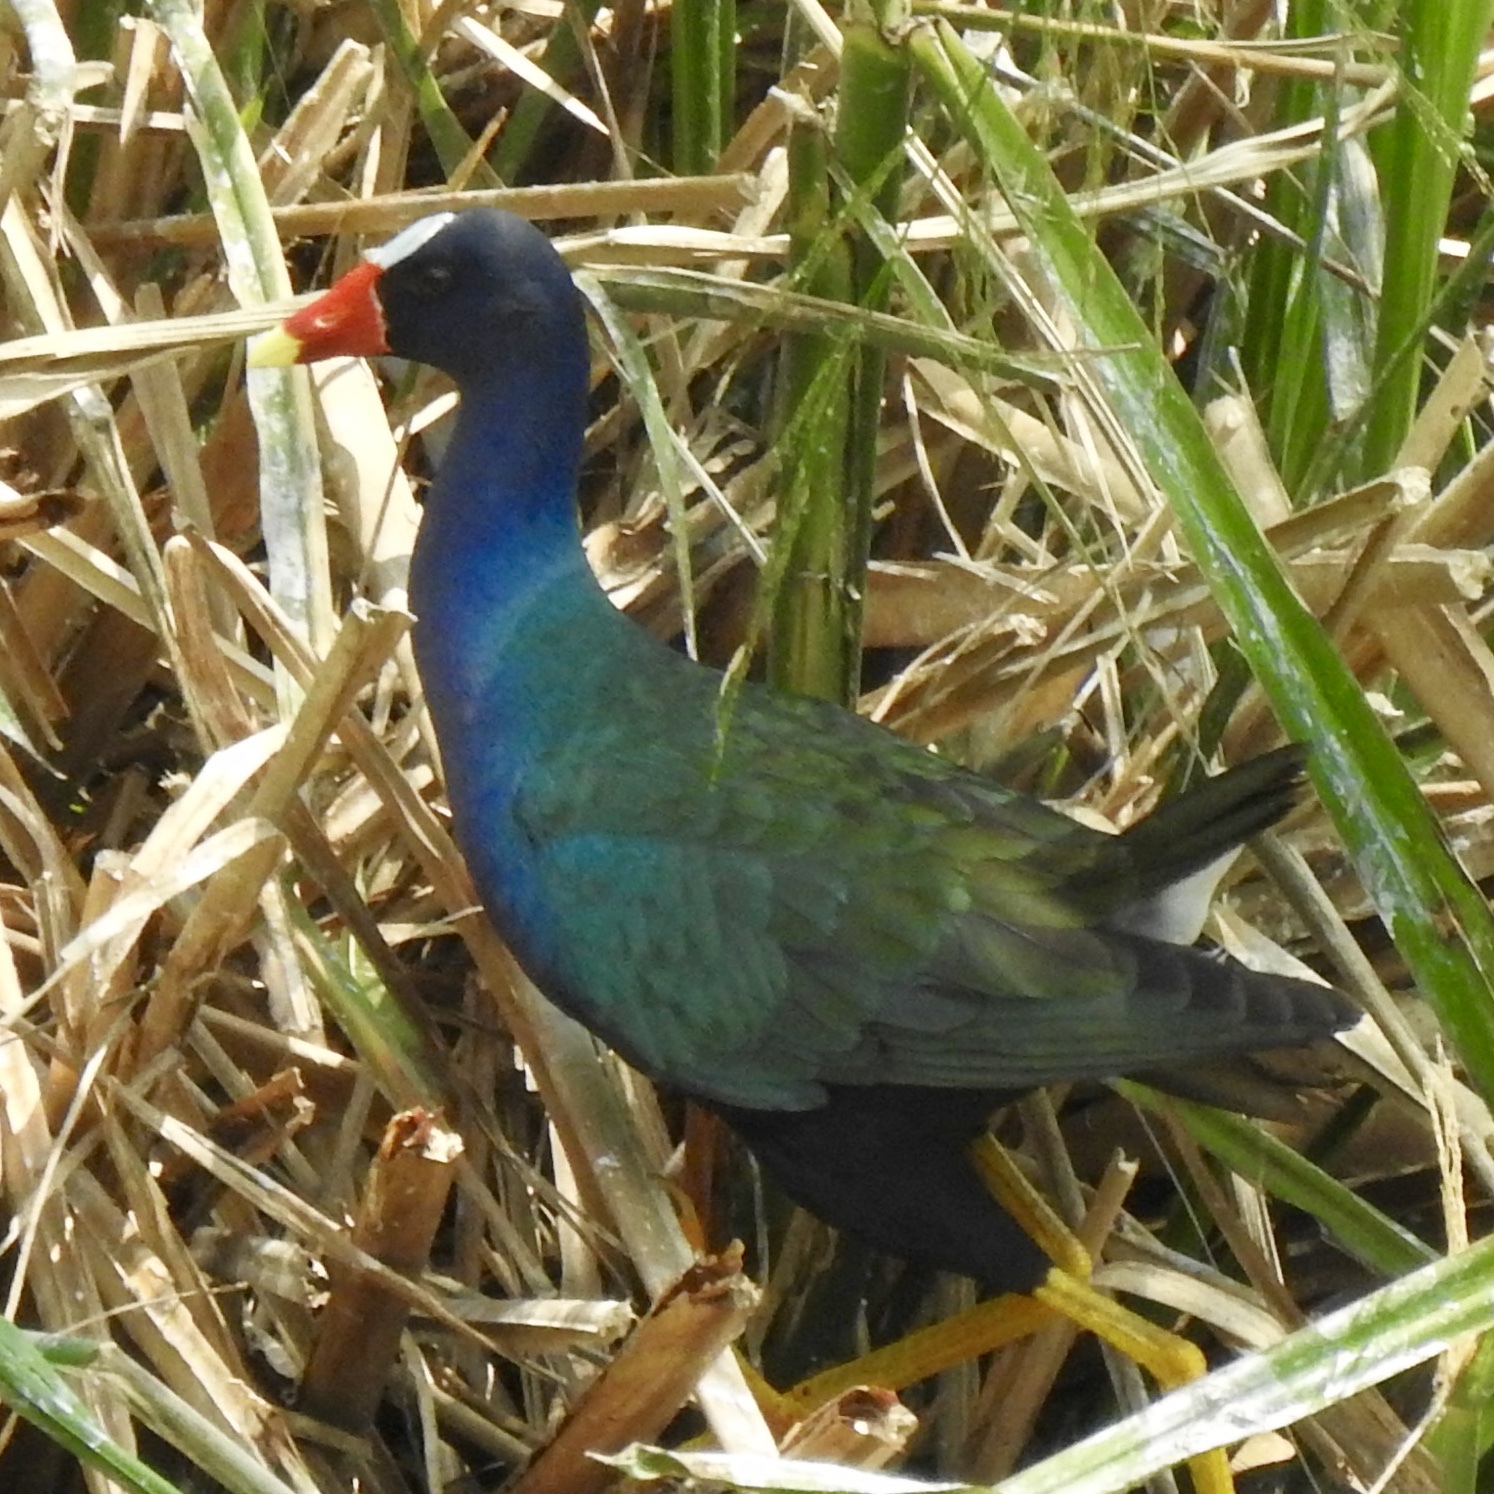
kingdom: Animalia
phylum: Chordata
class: Aves
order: Gruiformes
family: Rallidae
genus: Porphyrio
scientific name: Porphyrio martinica
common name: Purple gallinule
